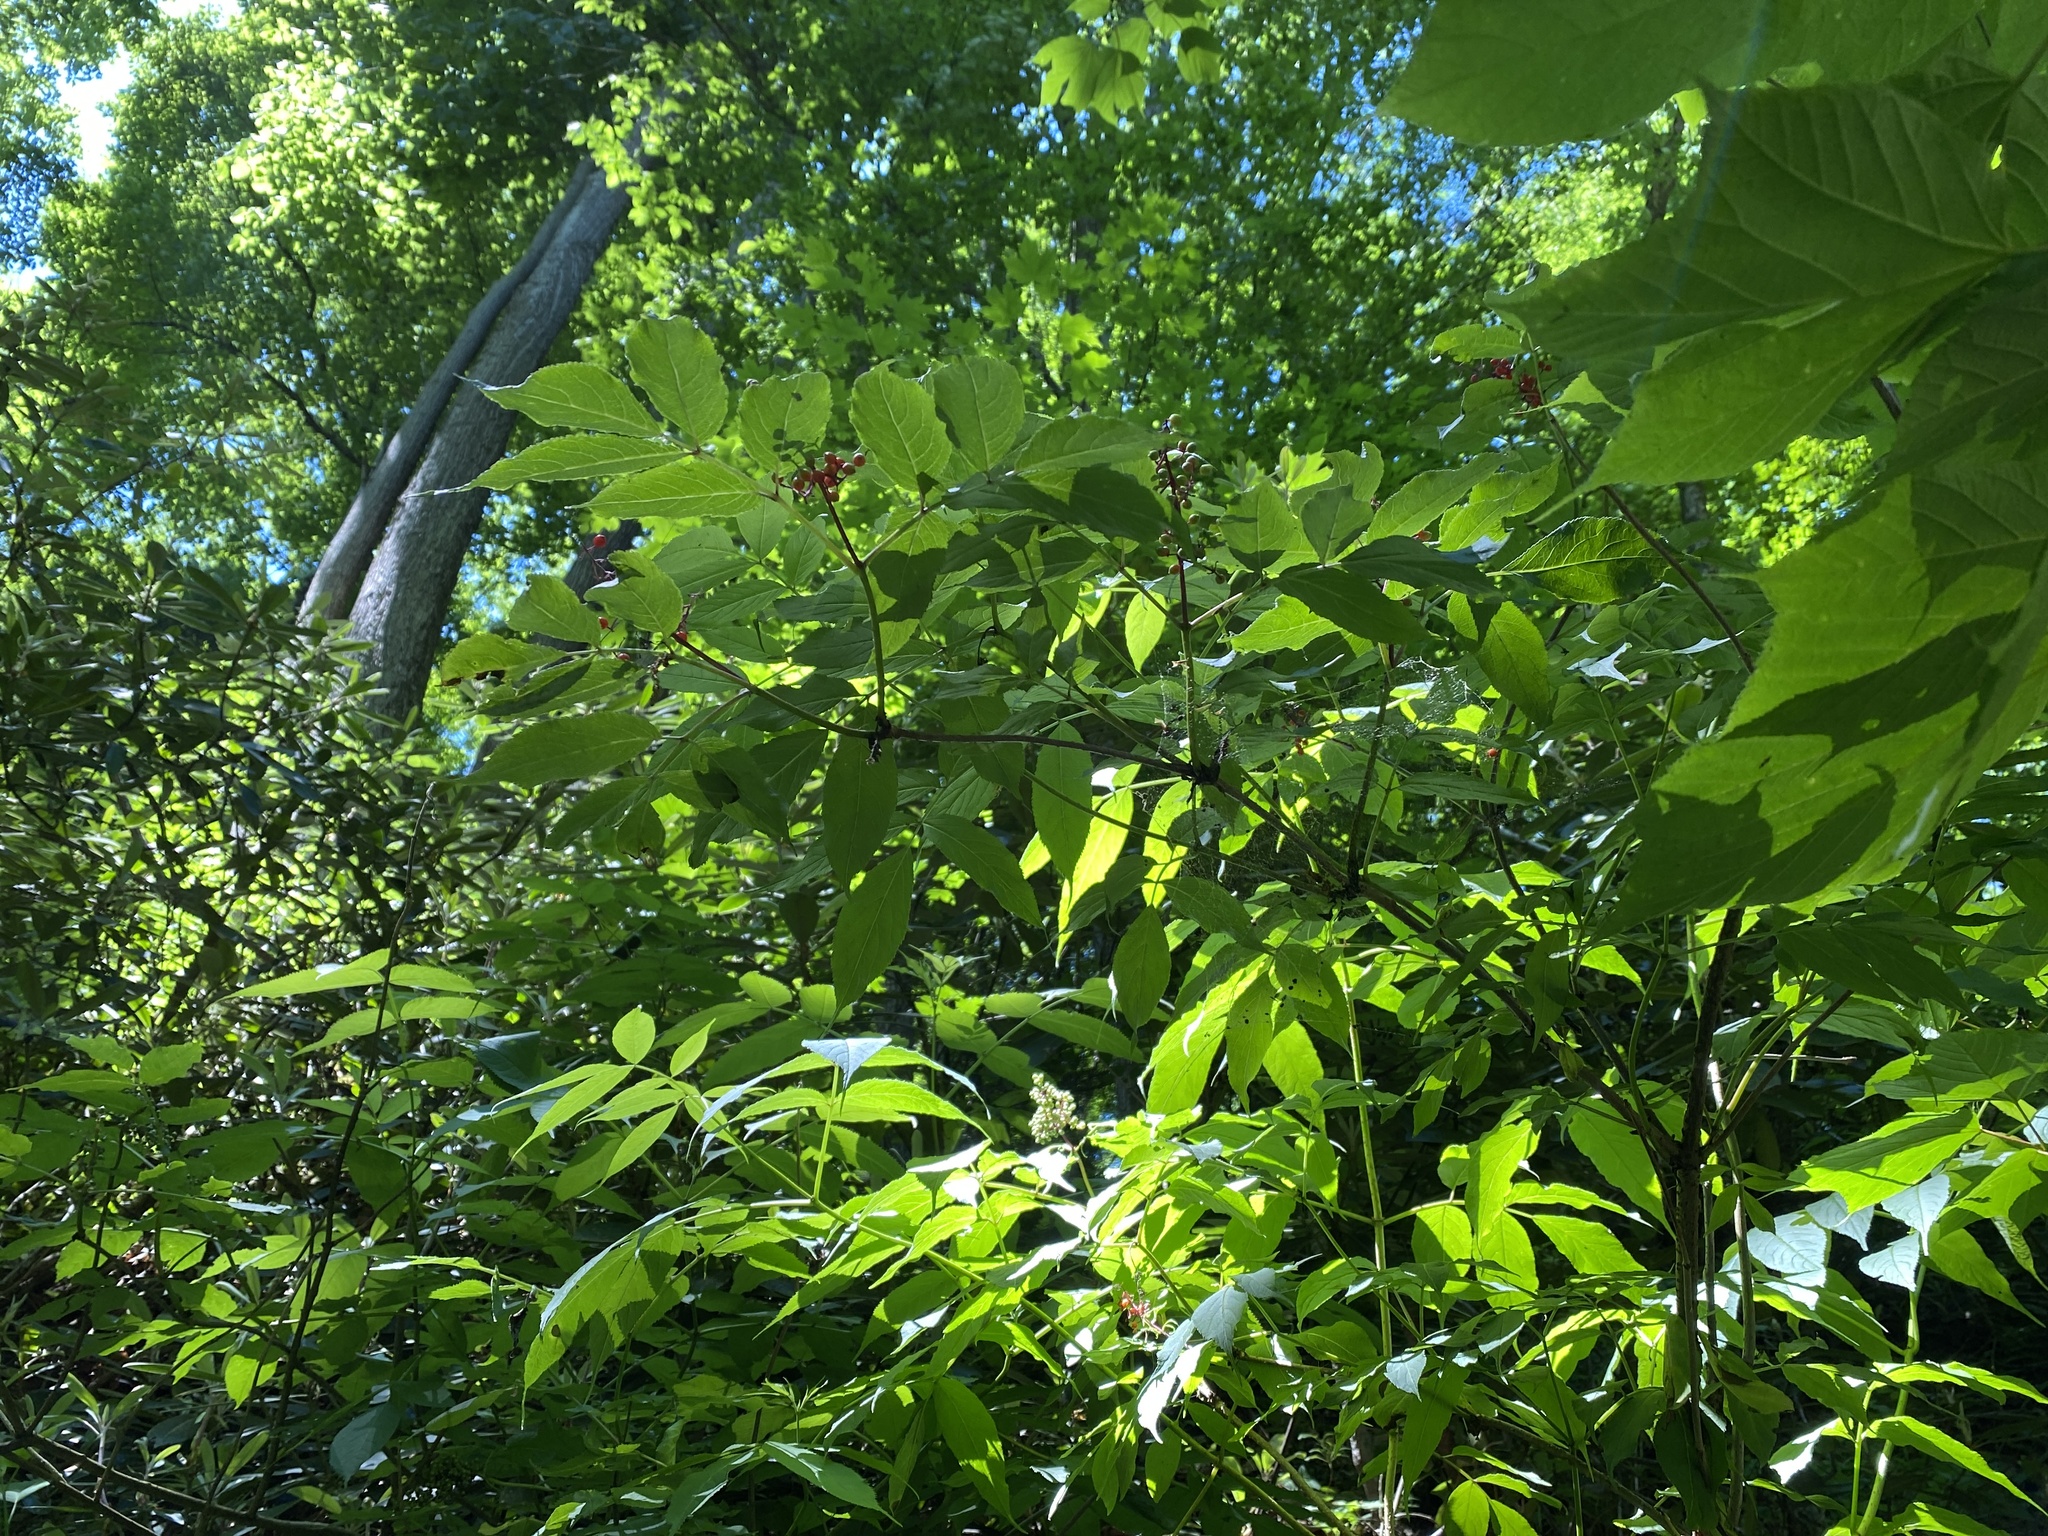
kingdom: Plantae
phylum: Tracheophyta
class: Magnoliopsida
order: Dipsacales
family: Viburnaceae
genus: Sambucus
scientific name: Sambucus racemosa
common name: Red-berried elder
